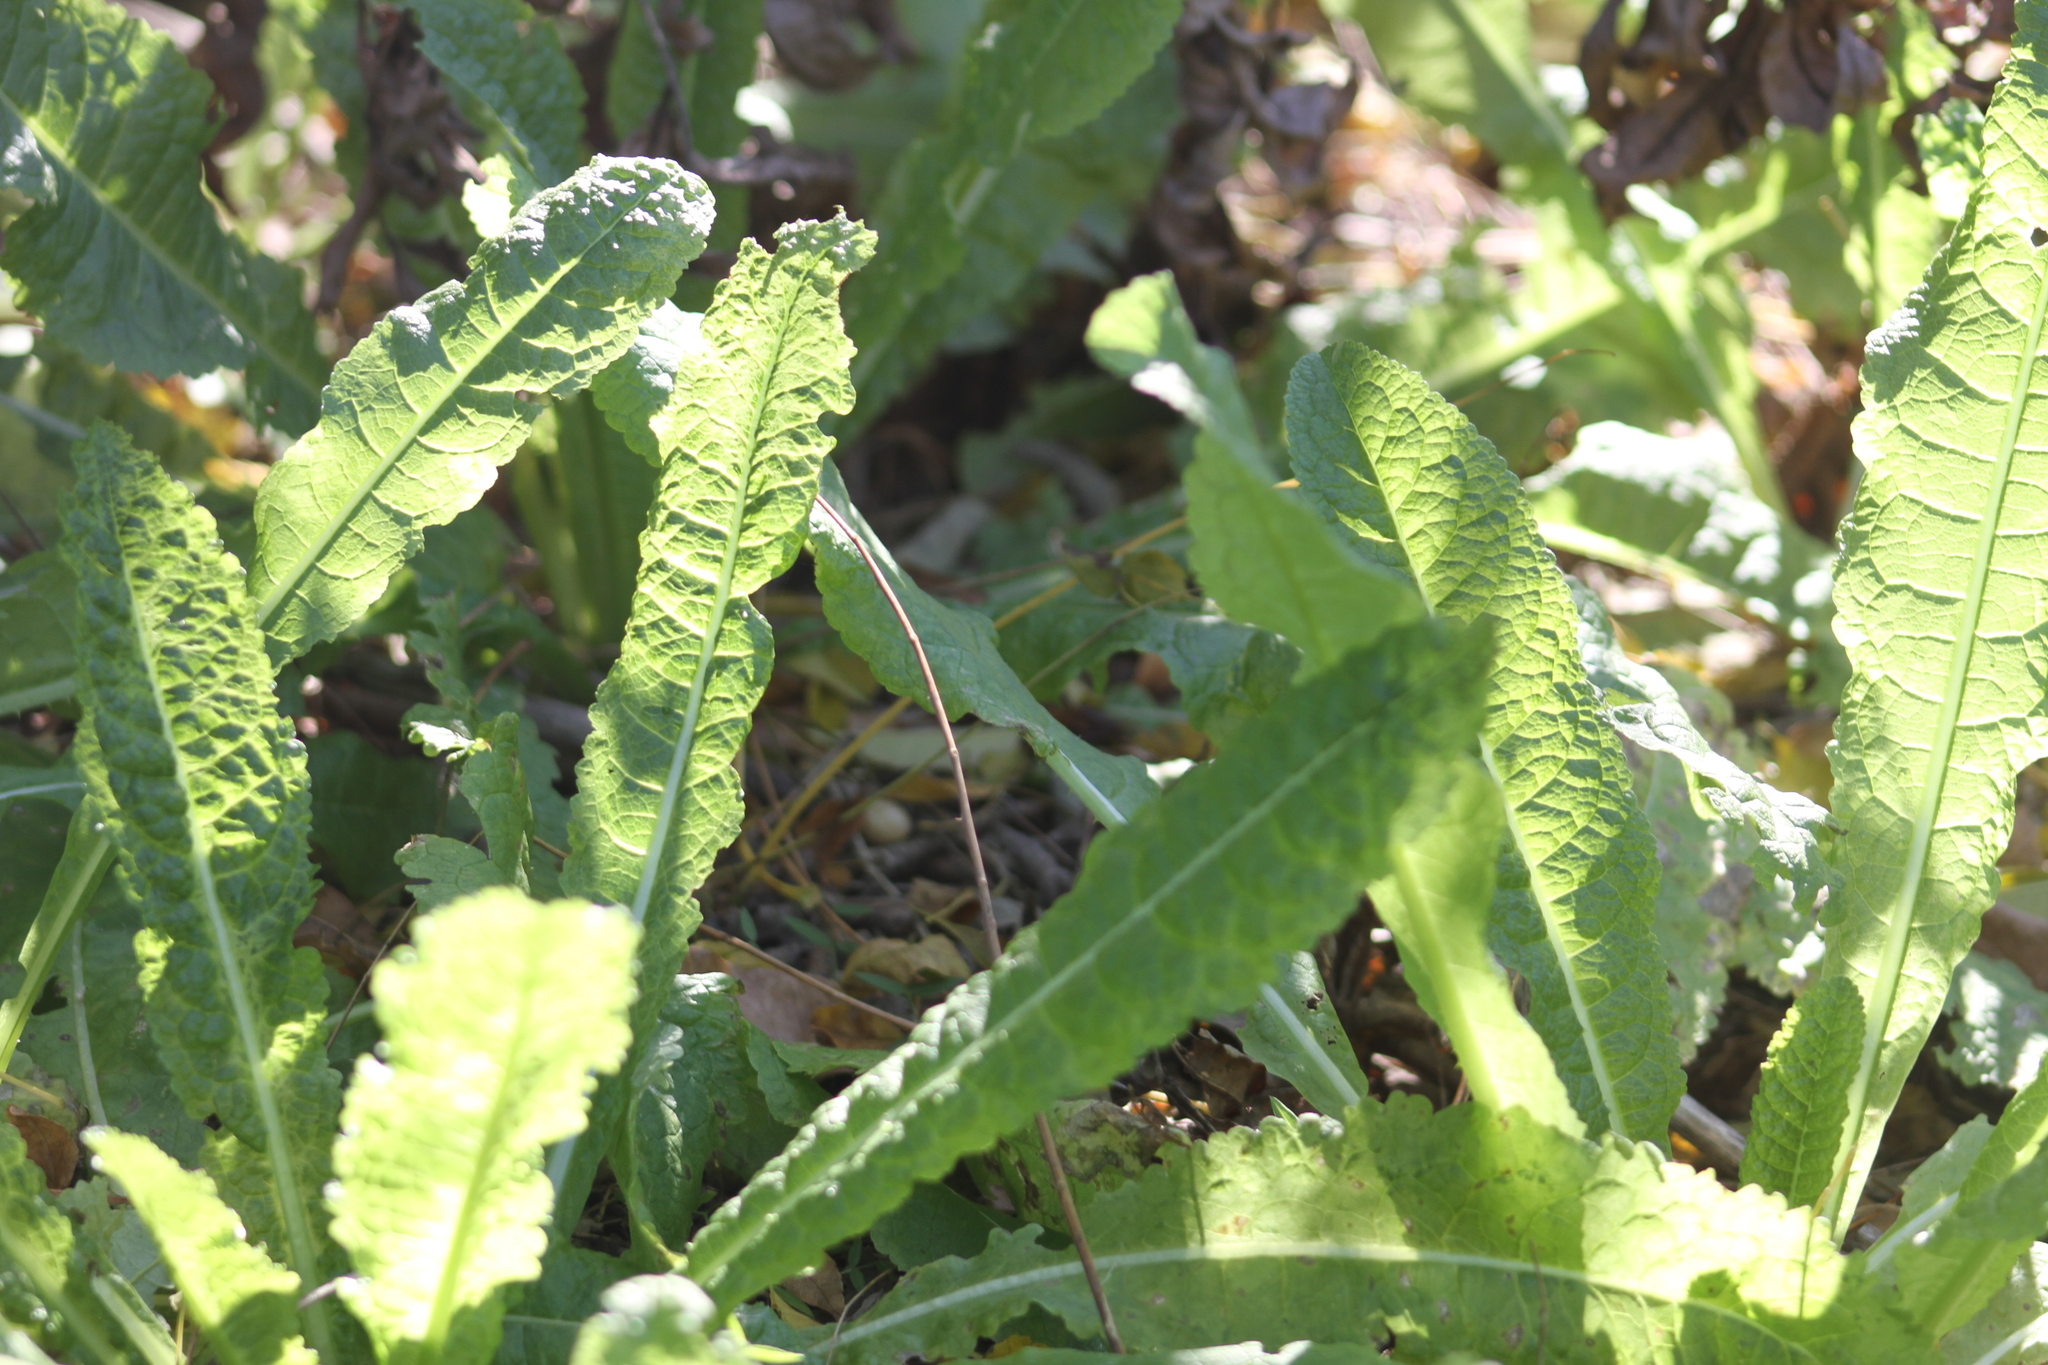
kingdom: Plantae
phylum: Tracheophyta
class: Magnoliopsida
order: Dipsacales
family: Caprifoliaceae
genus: Dipsacus
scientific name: Dipsacus fullonum
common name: Teasel
